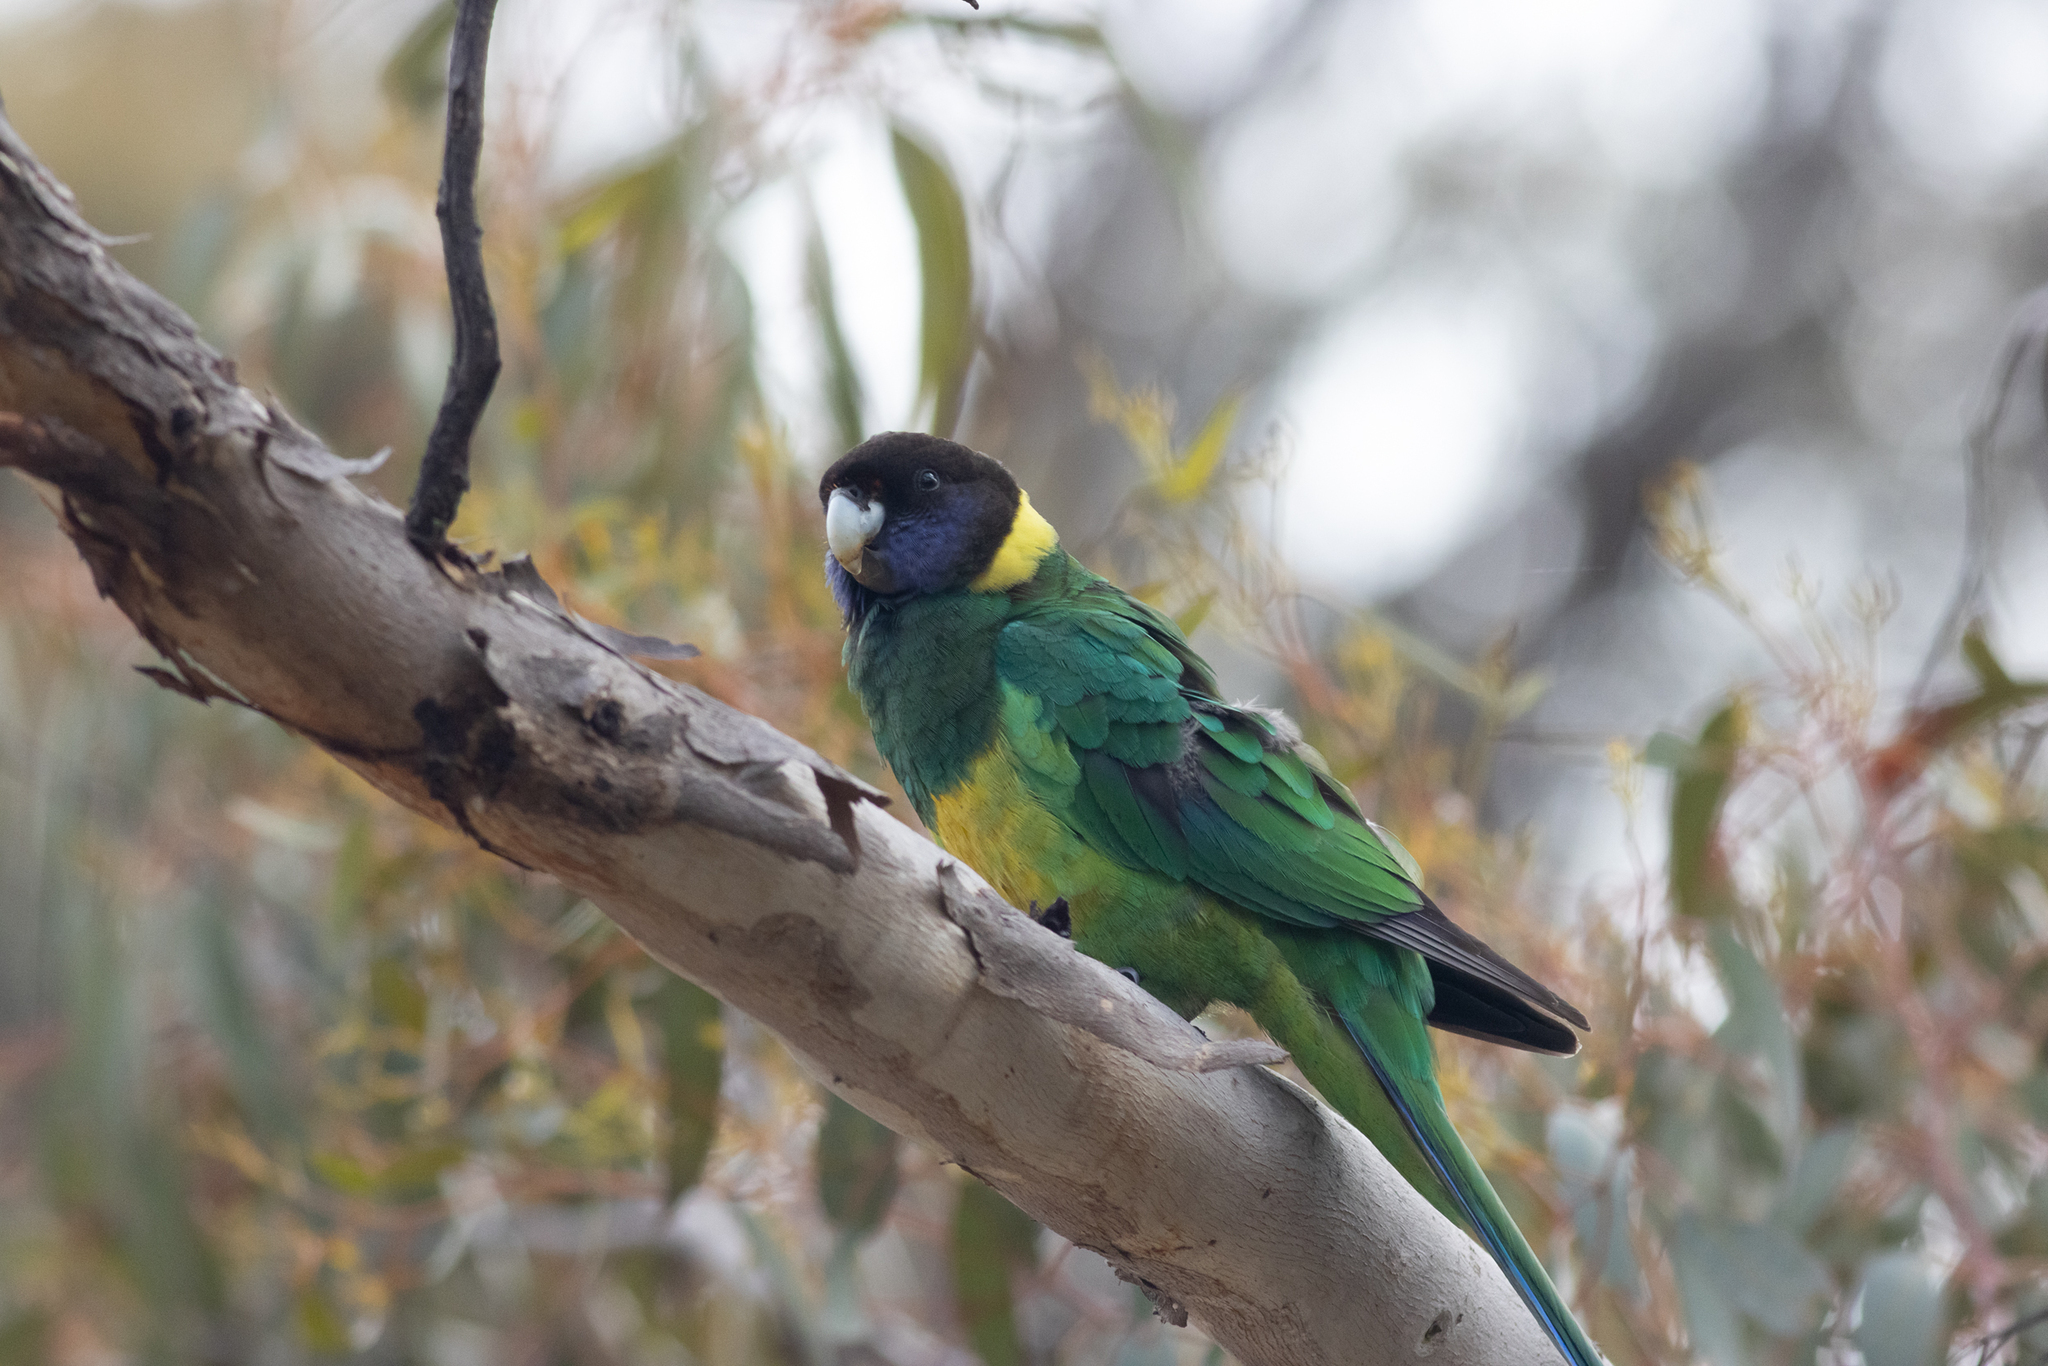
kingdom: Animalia
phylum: Chordata
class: Aves
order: Psittaciformes
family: Psittacidae
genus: Barnardius
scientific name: Barnardius zonarius
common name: Australian ringneck
